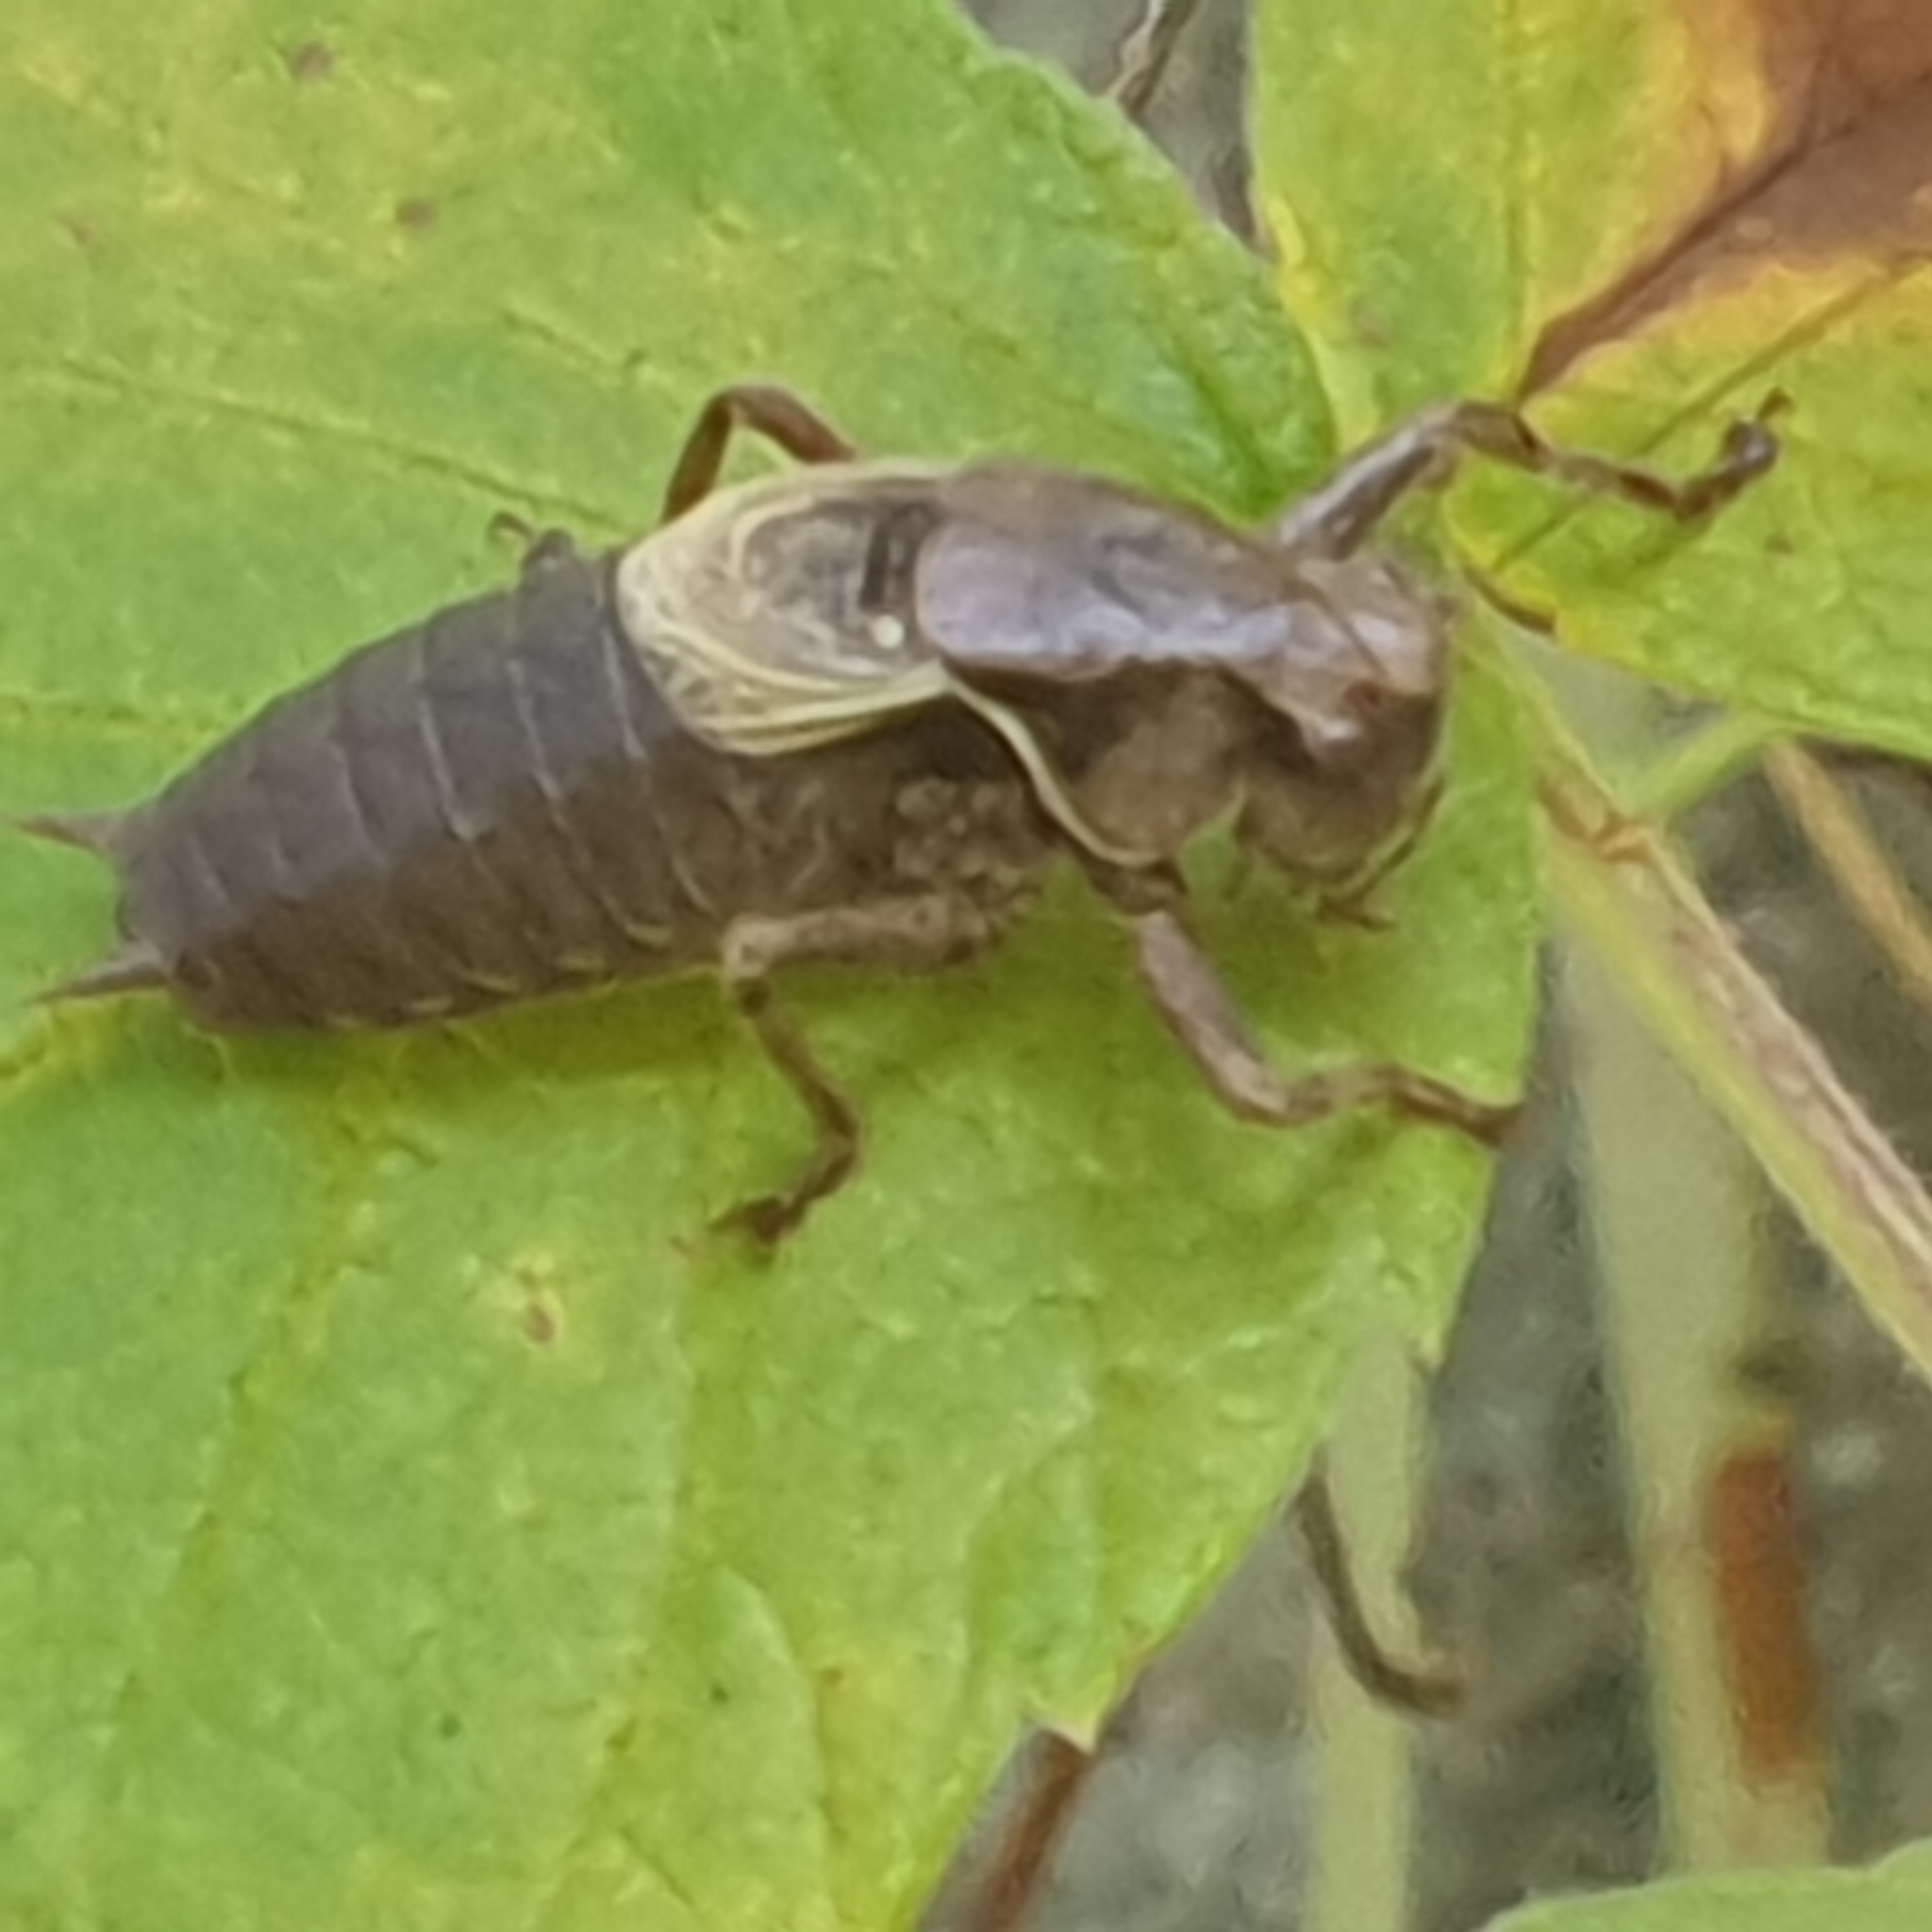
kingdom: Animalia
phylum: Arthropoda
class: Insecta
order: Orthoptera
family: Tettigoniidae
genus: Pholidoptera
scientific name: Pholidoptera griseoaptera
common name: Dark bush-cricket
